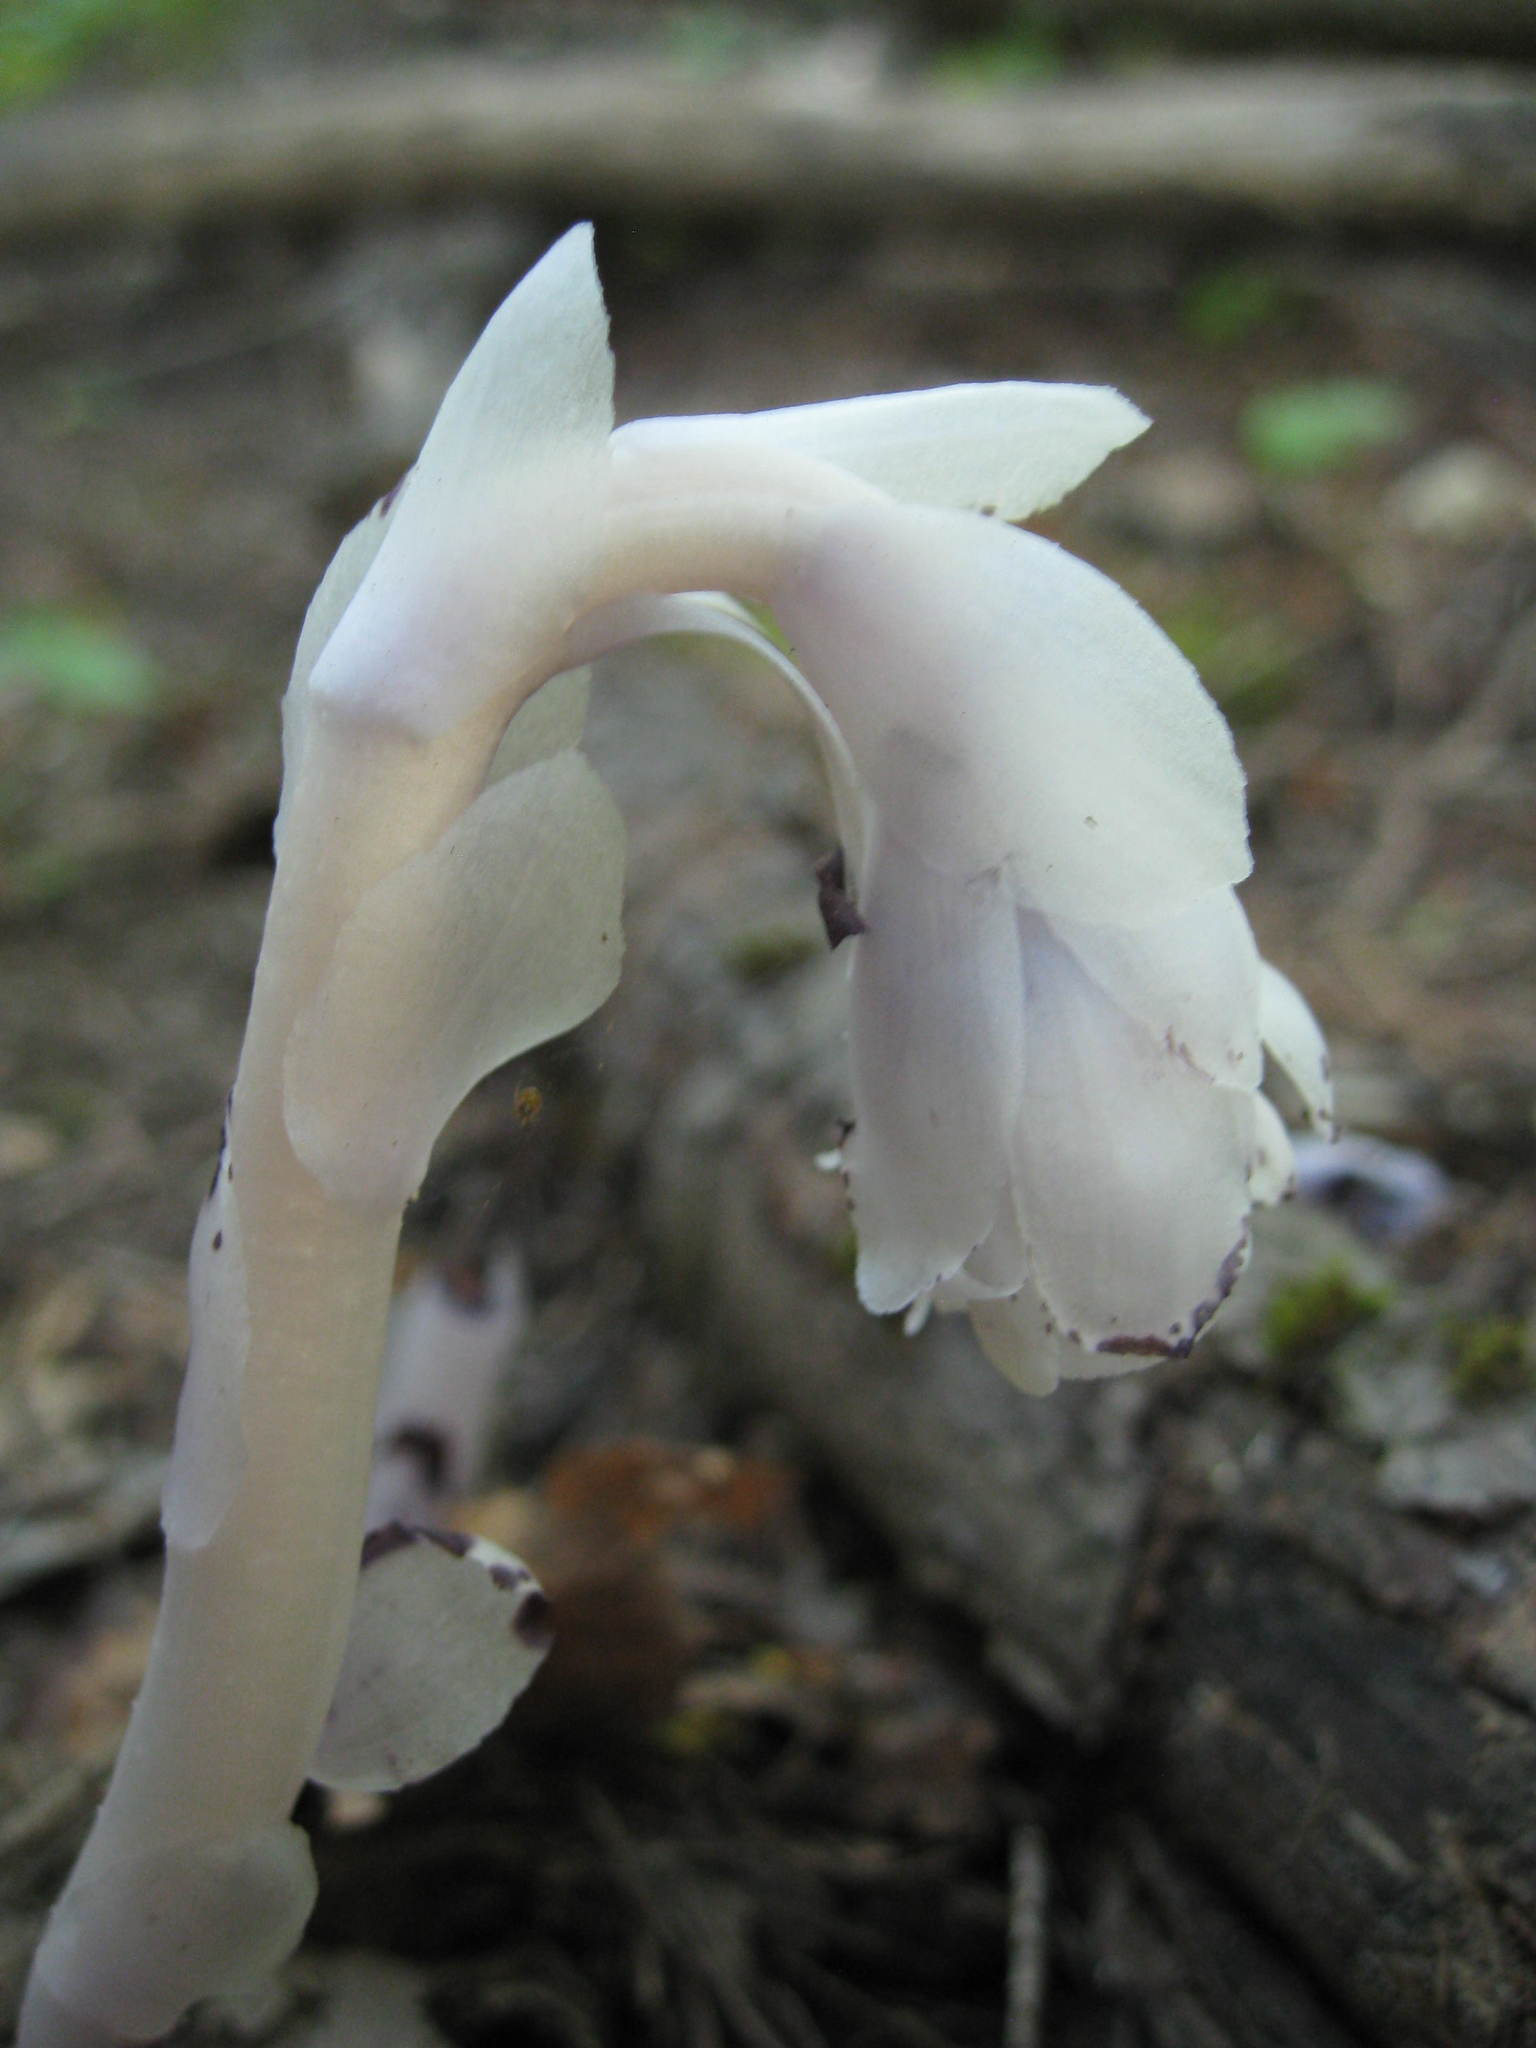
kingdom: Plantae
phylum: Tracheophyta
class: Magnoliopsida
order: Ericales
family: Ericaceae
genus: Monotropa
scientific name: Monotropa uniflora
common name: Convulsion root
